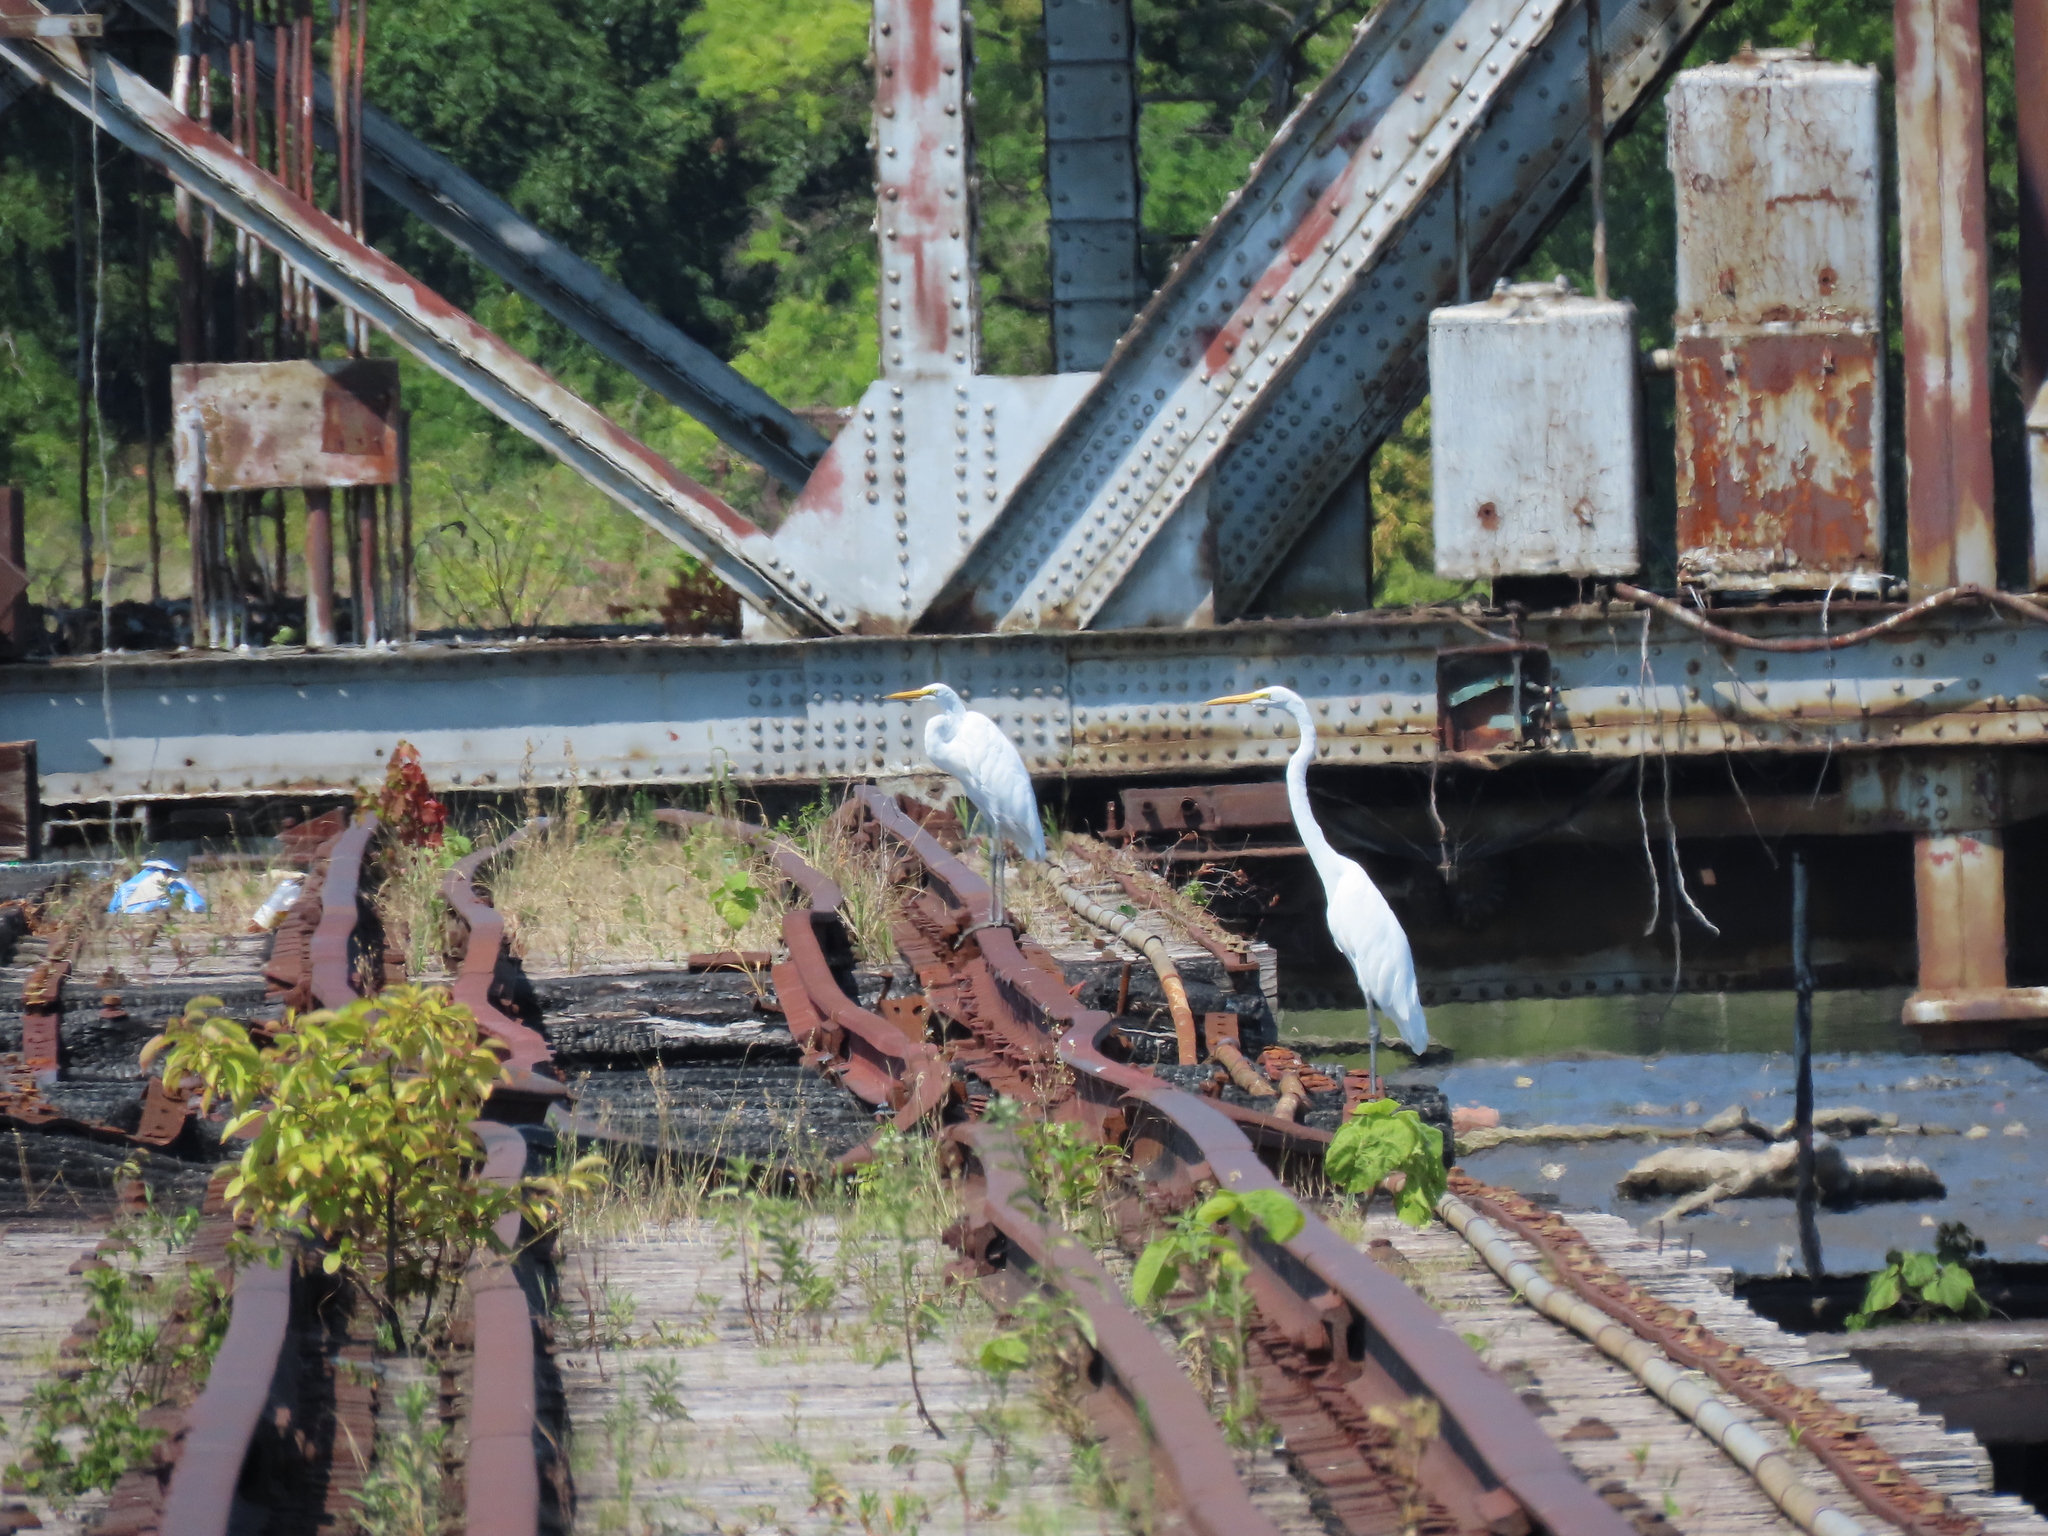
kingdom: Animalia
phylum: Chordata
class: Aves
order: Pelecaniformes
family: Ardeidae
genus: Ardea
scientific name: Ardea alba
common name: Great egret
